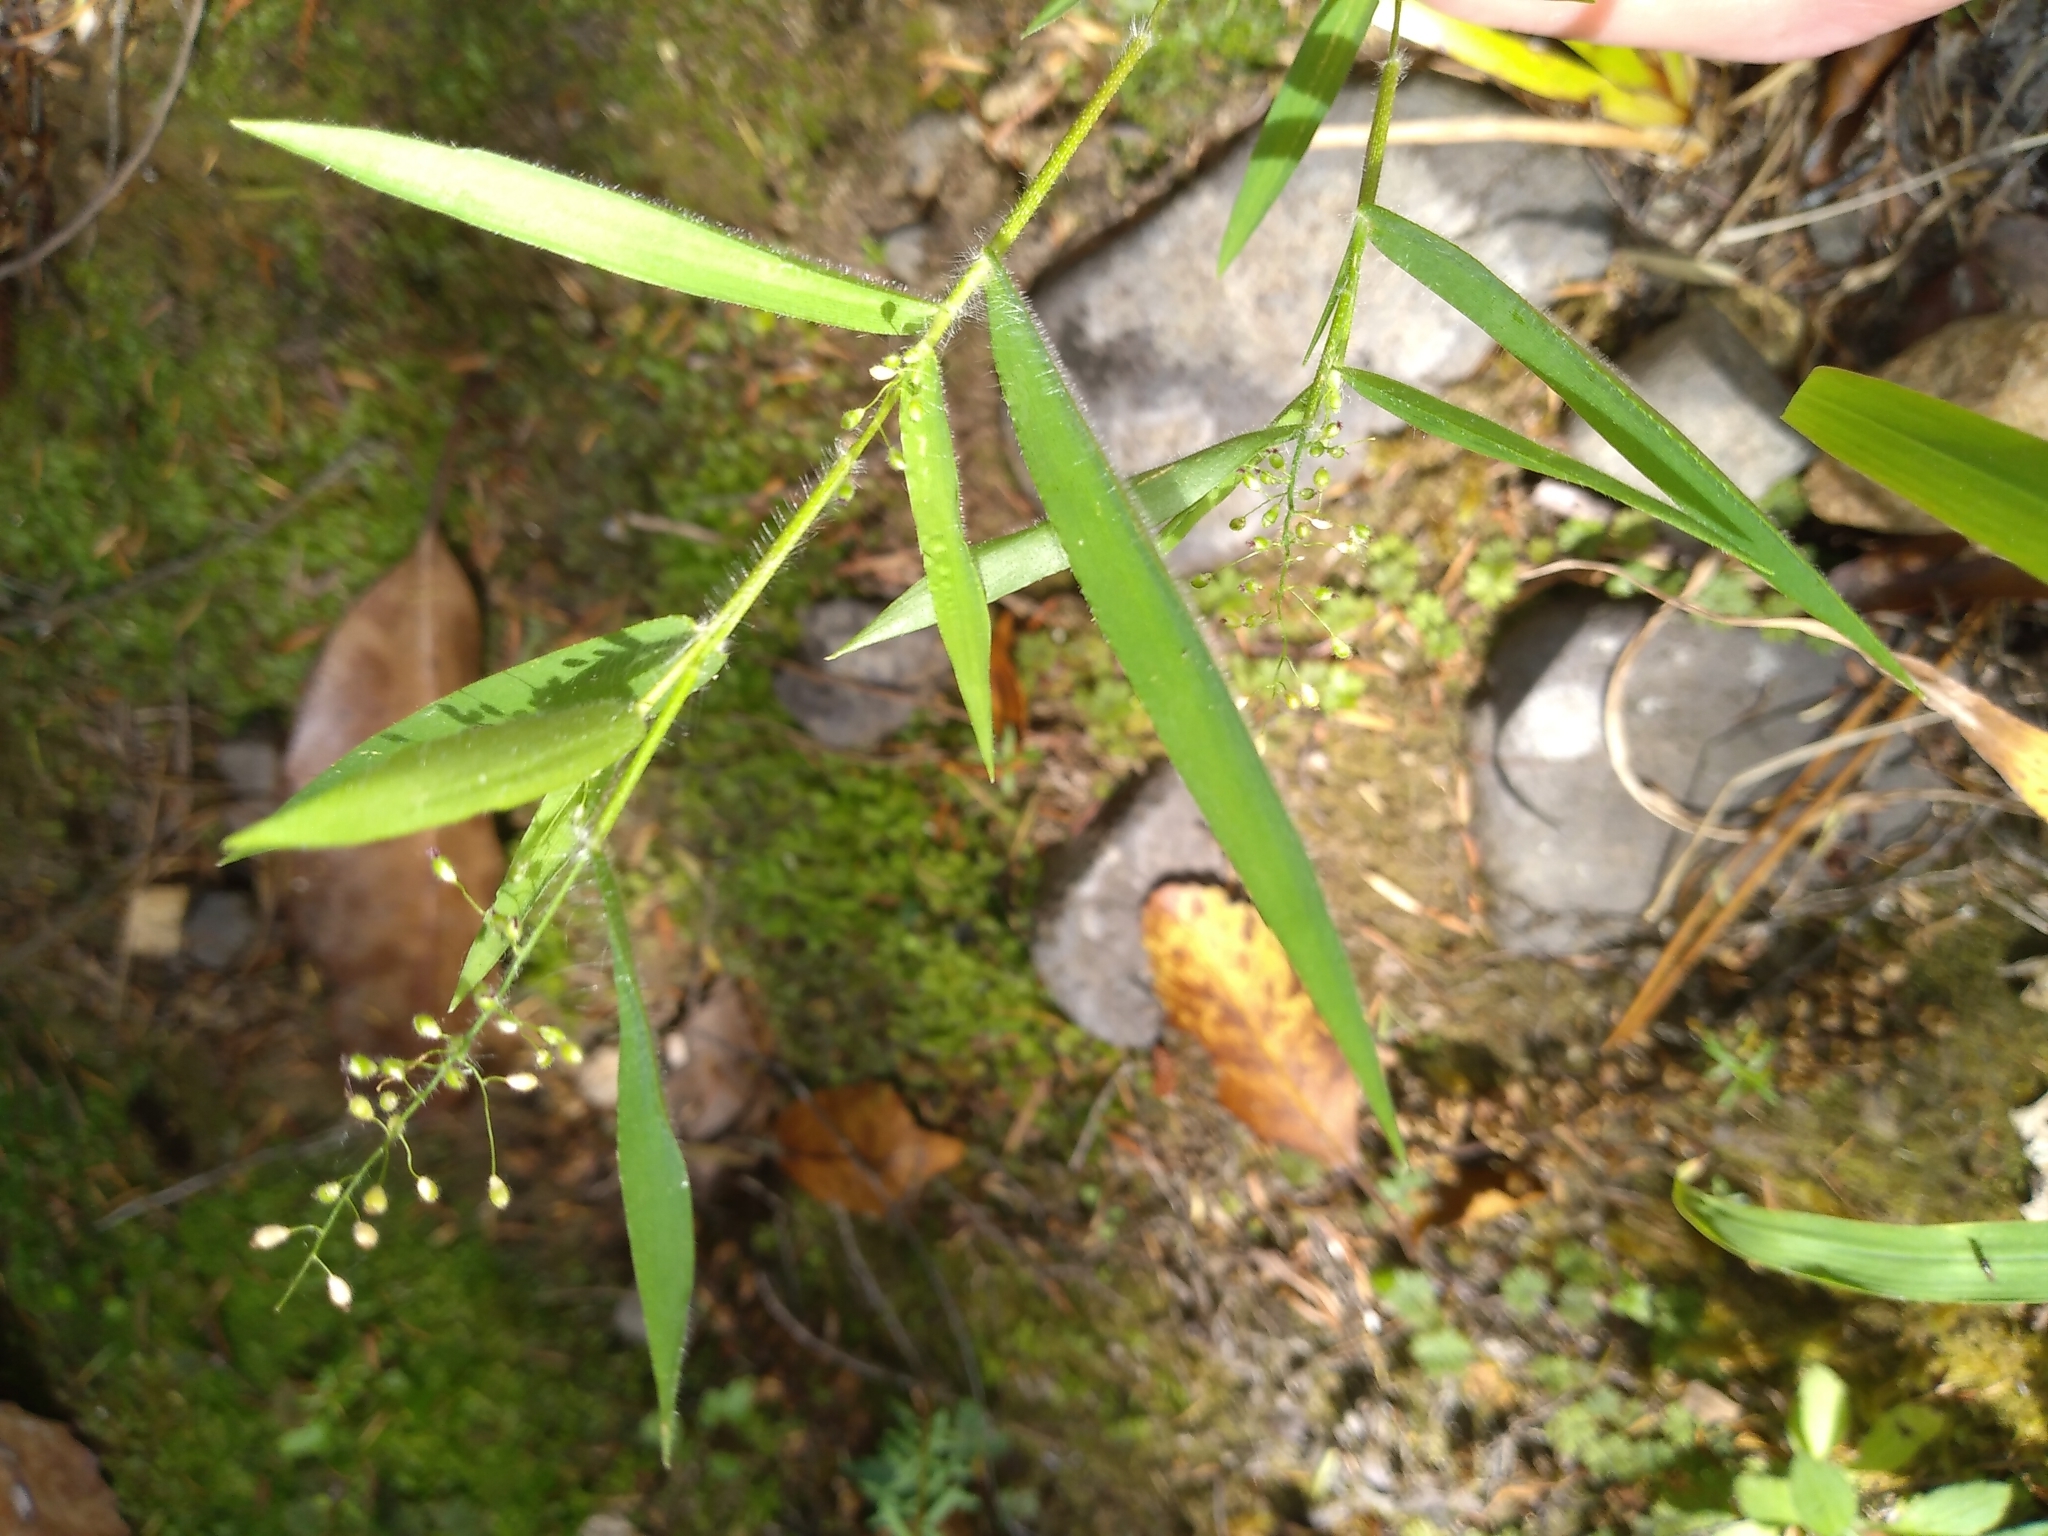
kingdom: Plantae
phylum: Tracheophyta
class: Liliopsida
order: Poales
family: Poaceae
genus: Isachne
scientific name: Isachne globosa
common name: Swamp millet
